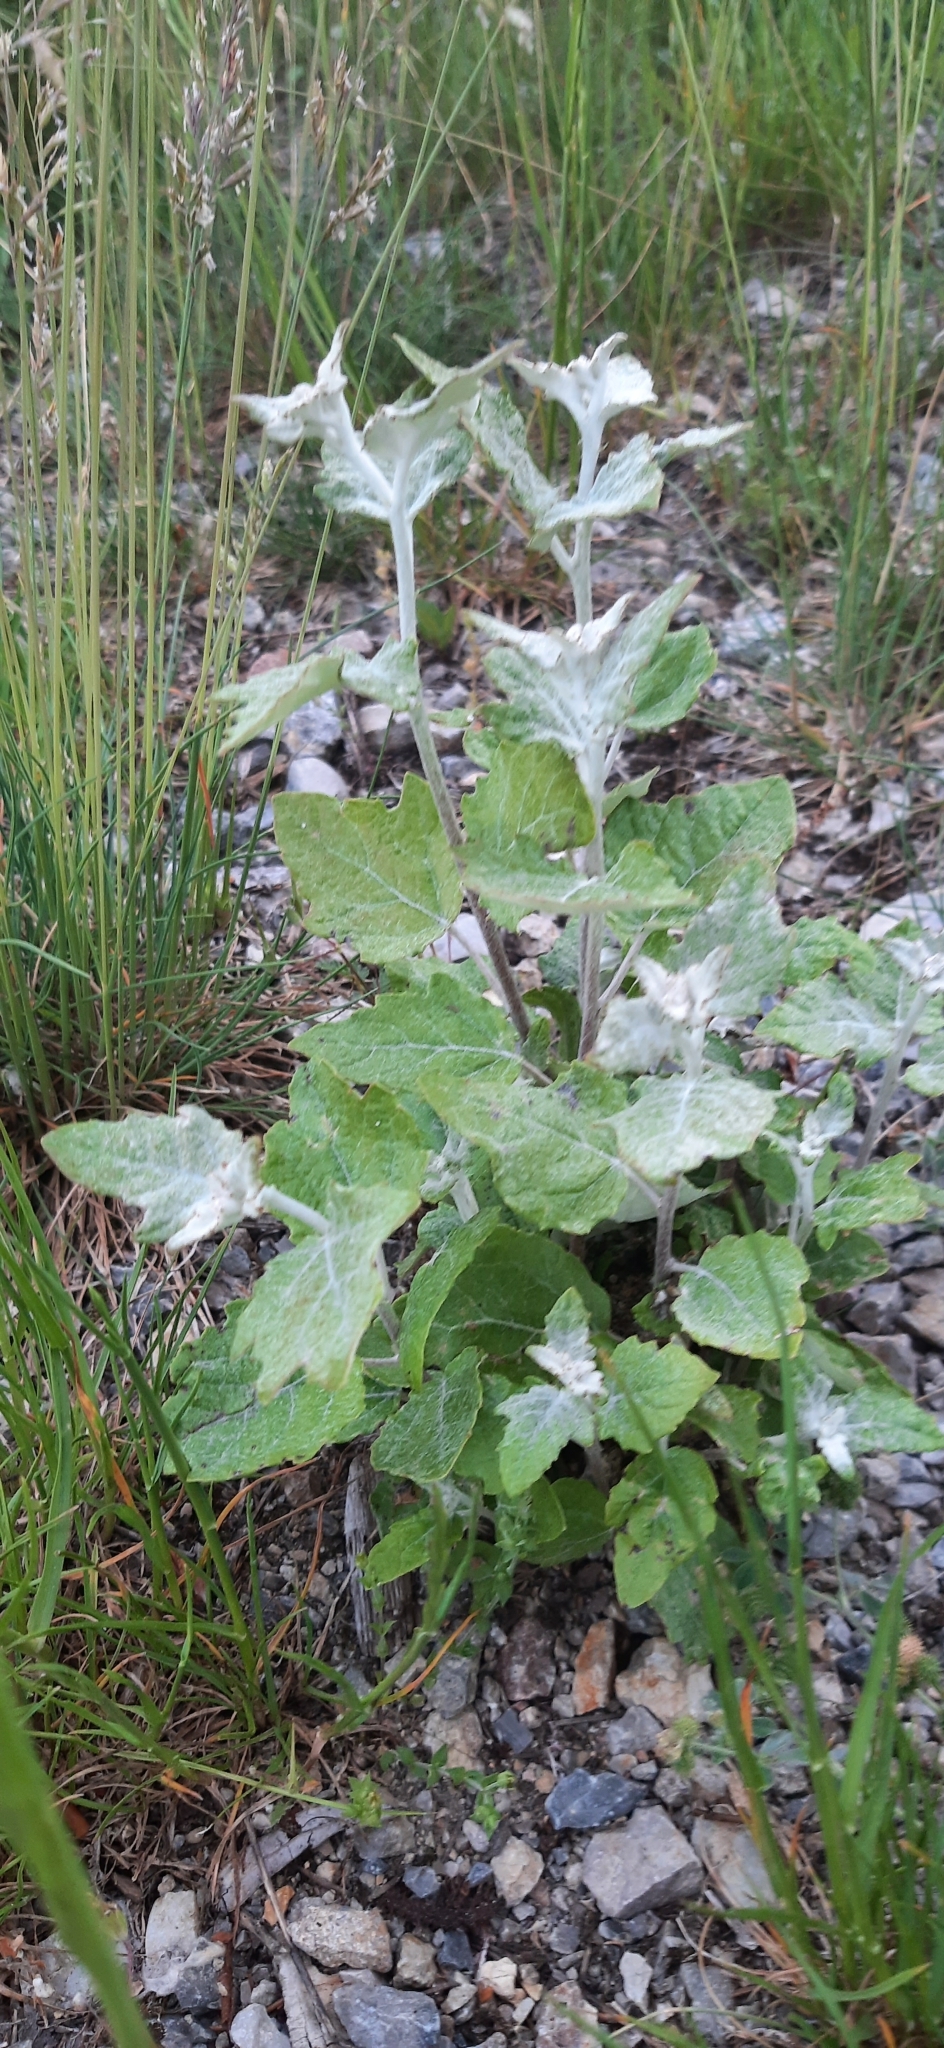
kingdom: Plantae
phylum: Tracheophyta
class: Magnoliopsida
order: Malpighiales
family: Salicaceae
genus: Populus
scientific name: Populus alba
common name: White poplar
